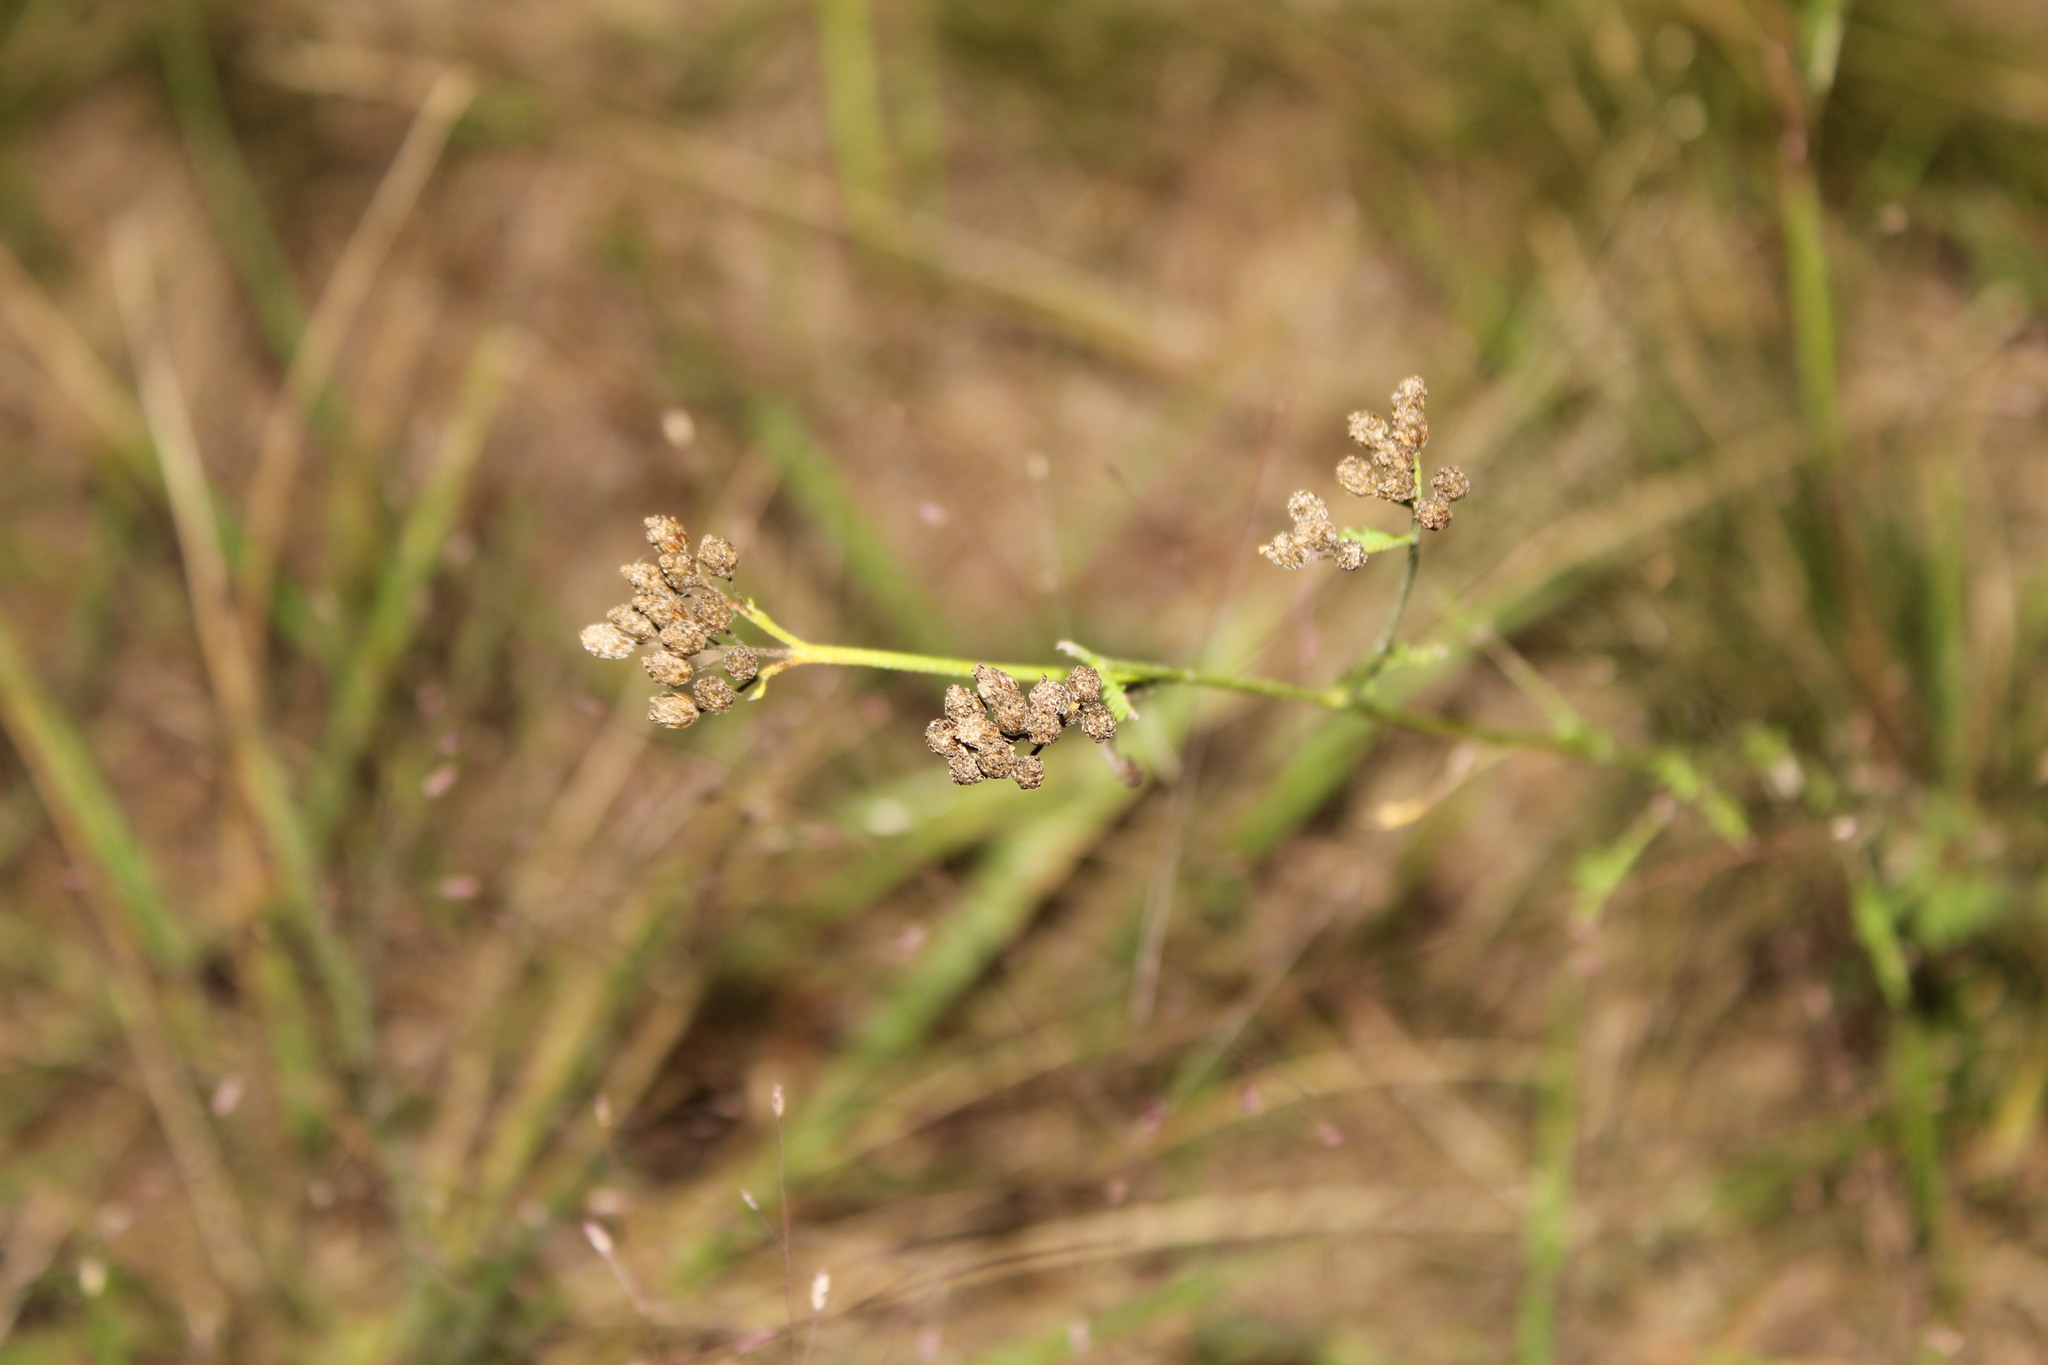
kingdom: Plantae
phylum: Tracheophyta
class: Magnoliopsida
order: Asterales
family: Asteraceae
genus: Achillea
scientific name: Achillea millefolium
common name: Yarrow
